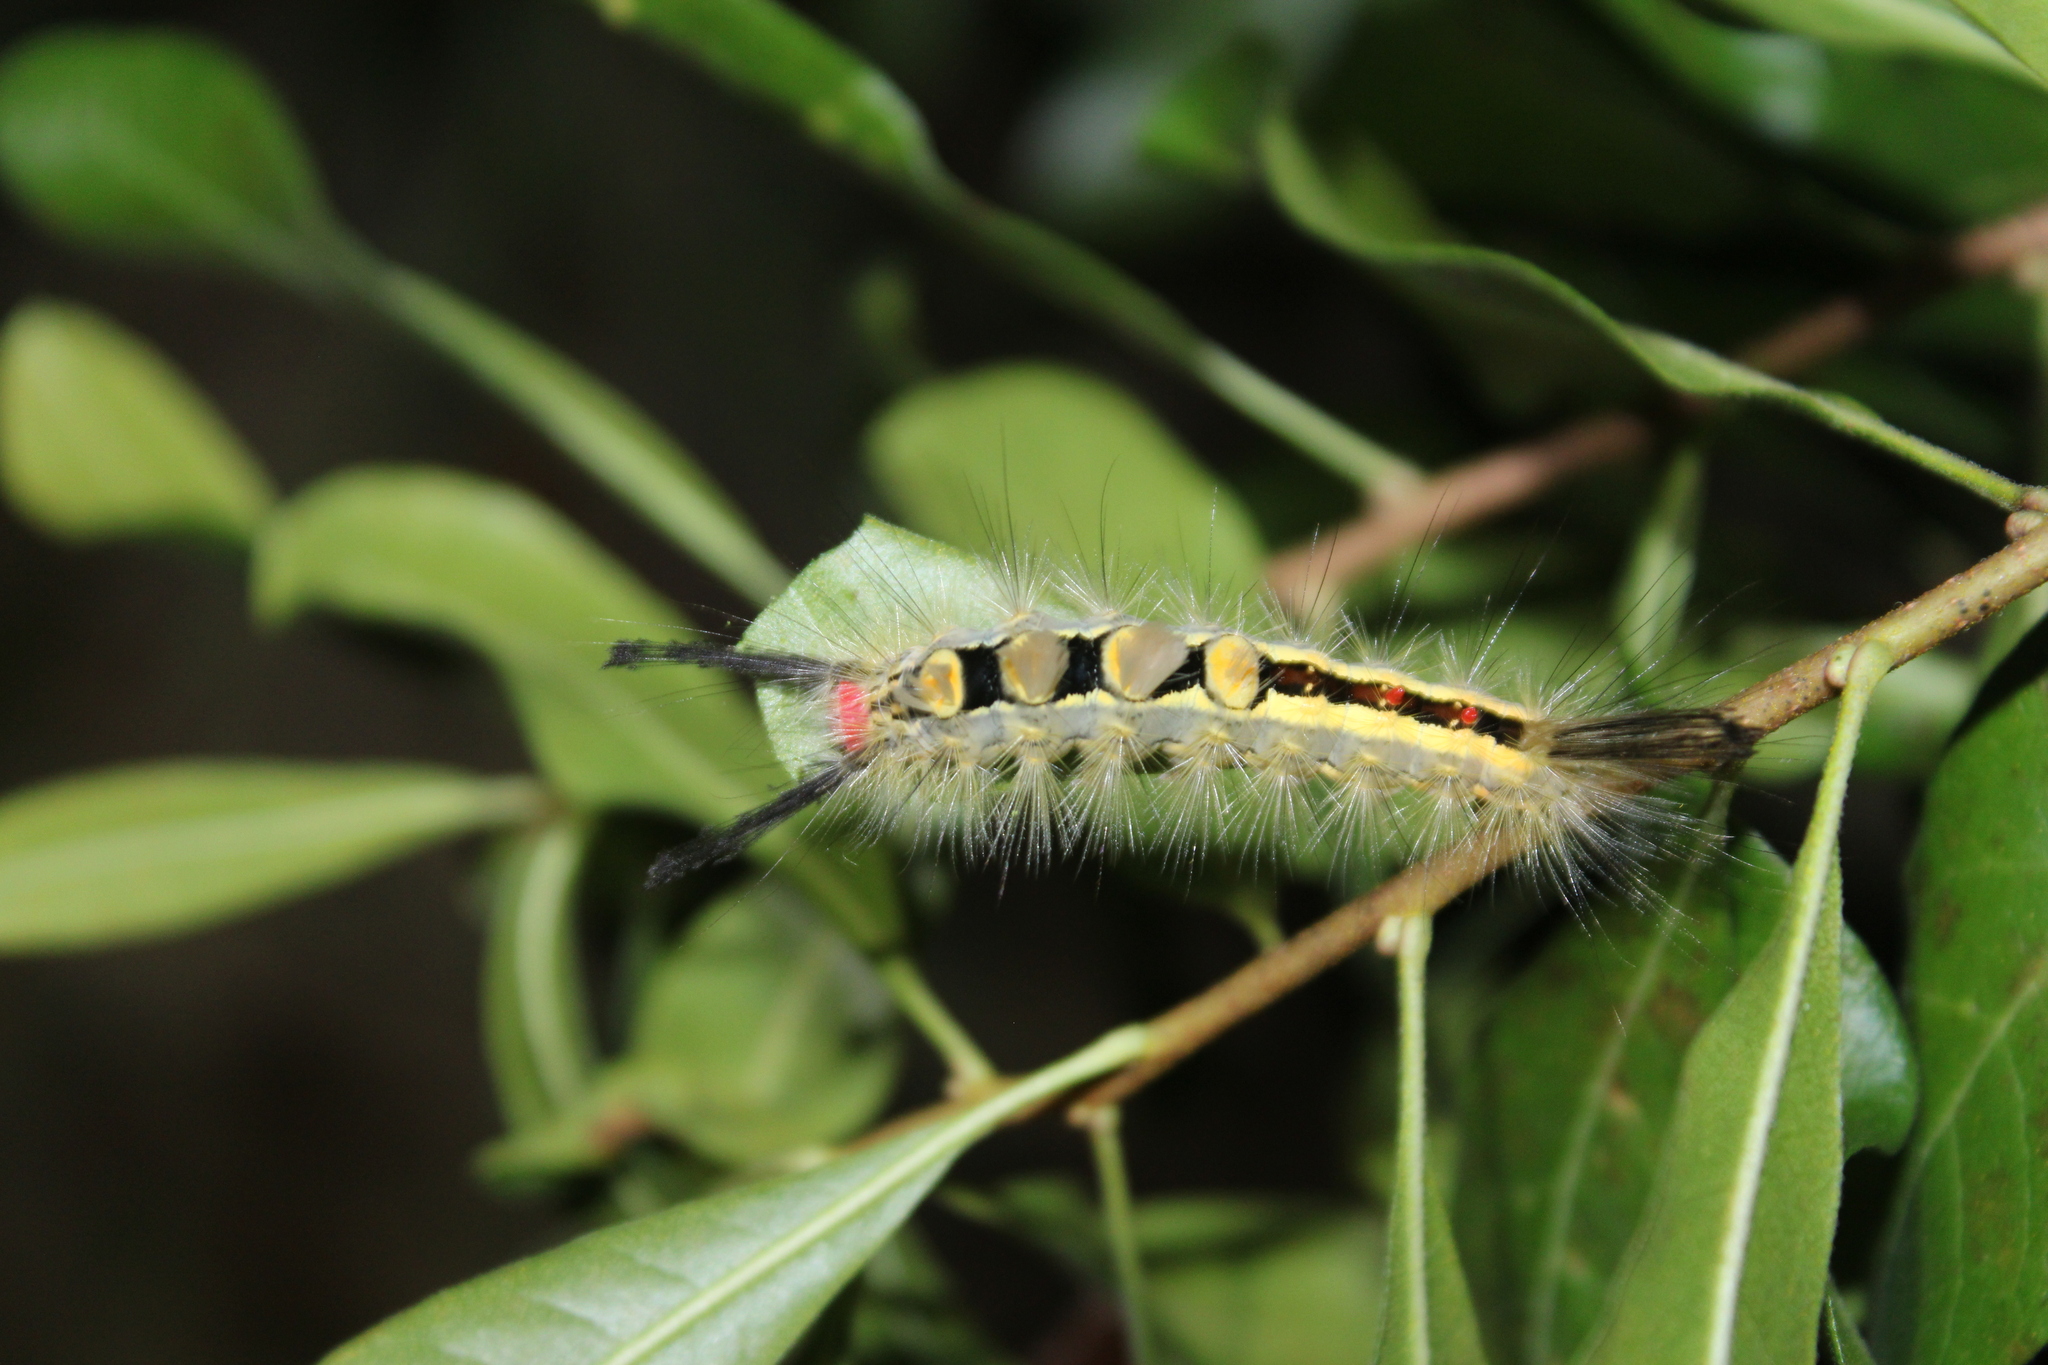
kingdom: Animalia
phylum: Arthropoda
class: Insecta
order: Lepidoptera
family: Erebidae
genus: Orgyia
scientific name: Orgyia leucostigma
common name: White-marked tussock moth
